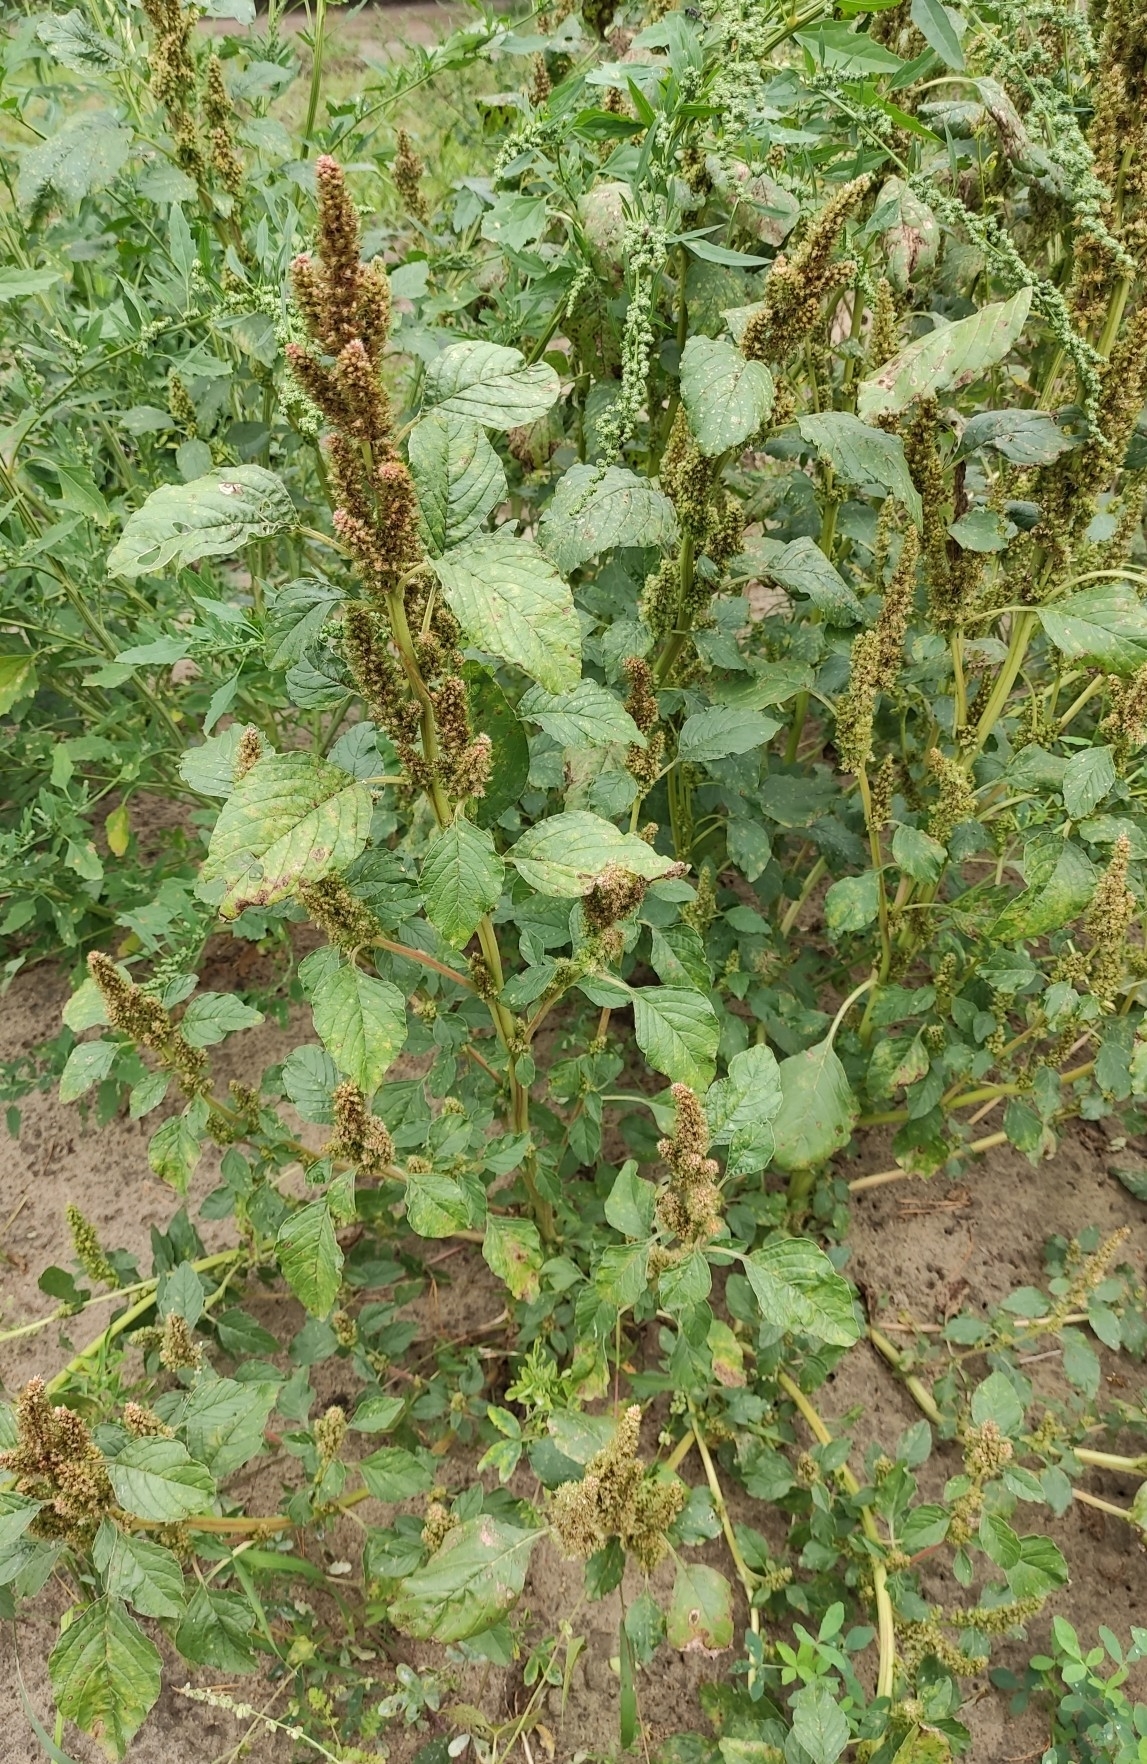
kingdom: Plantae
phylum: Tracheophyta
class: Magnoliopsida
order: Caryophyllales
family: Amaranthaceae
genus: Amaranthus
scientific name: Amaranthus retroflexus
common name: Redroot amaranth
